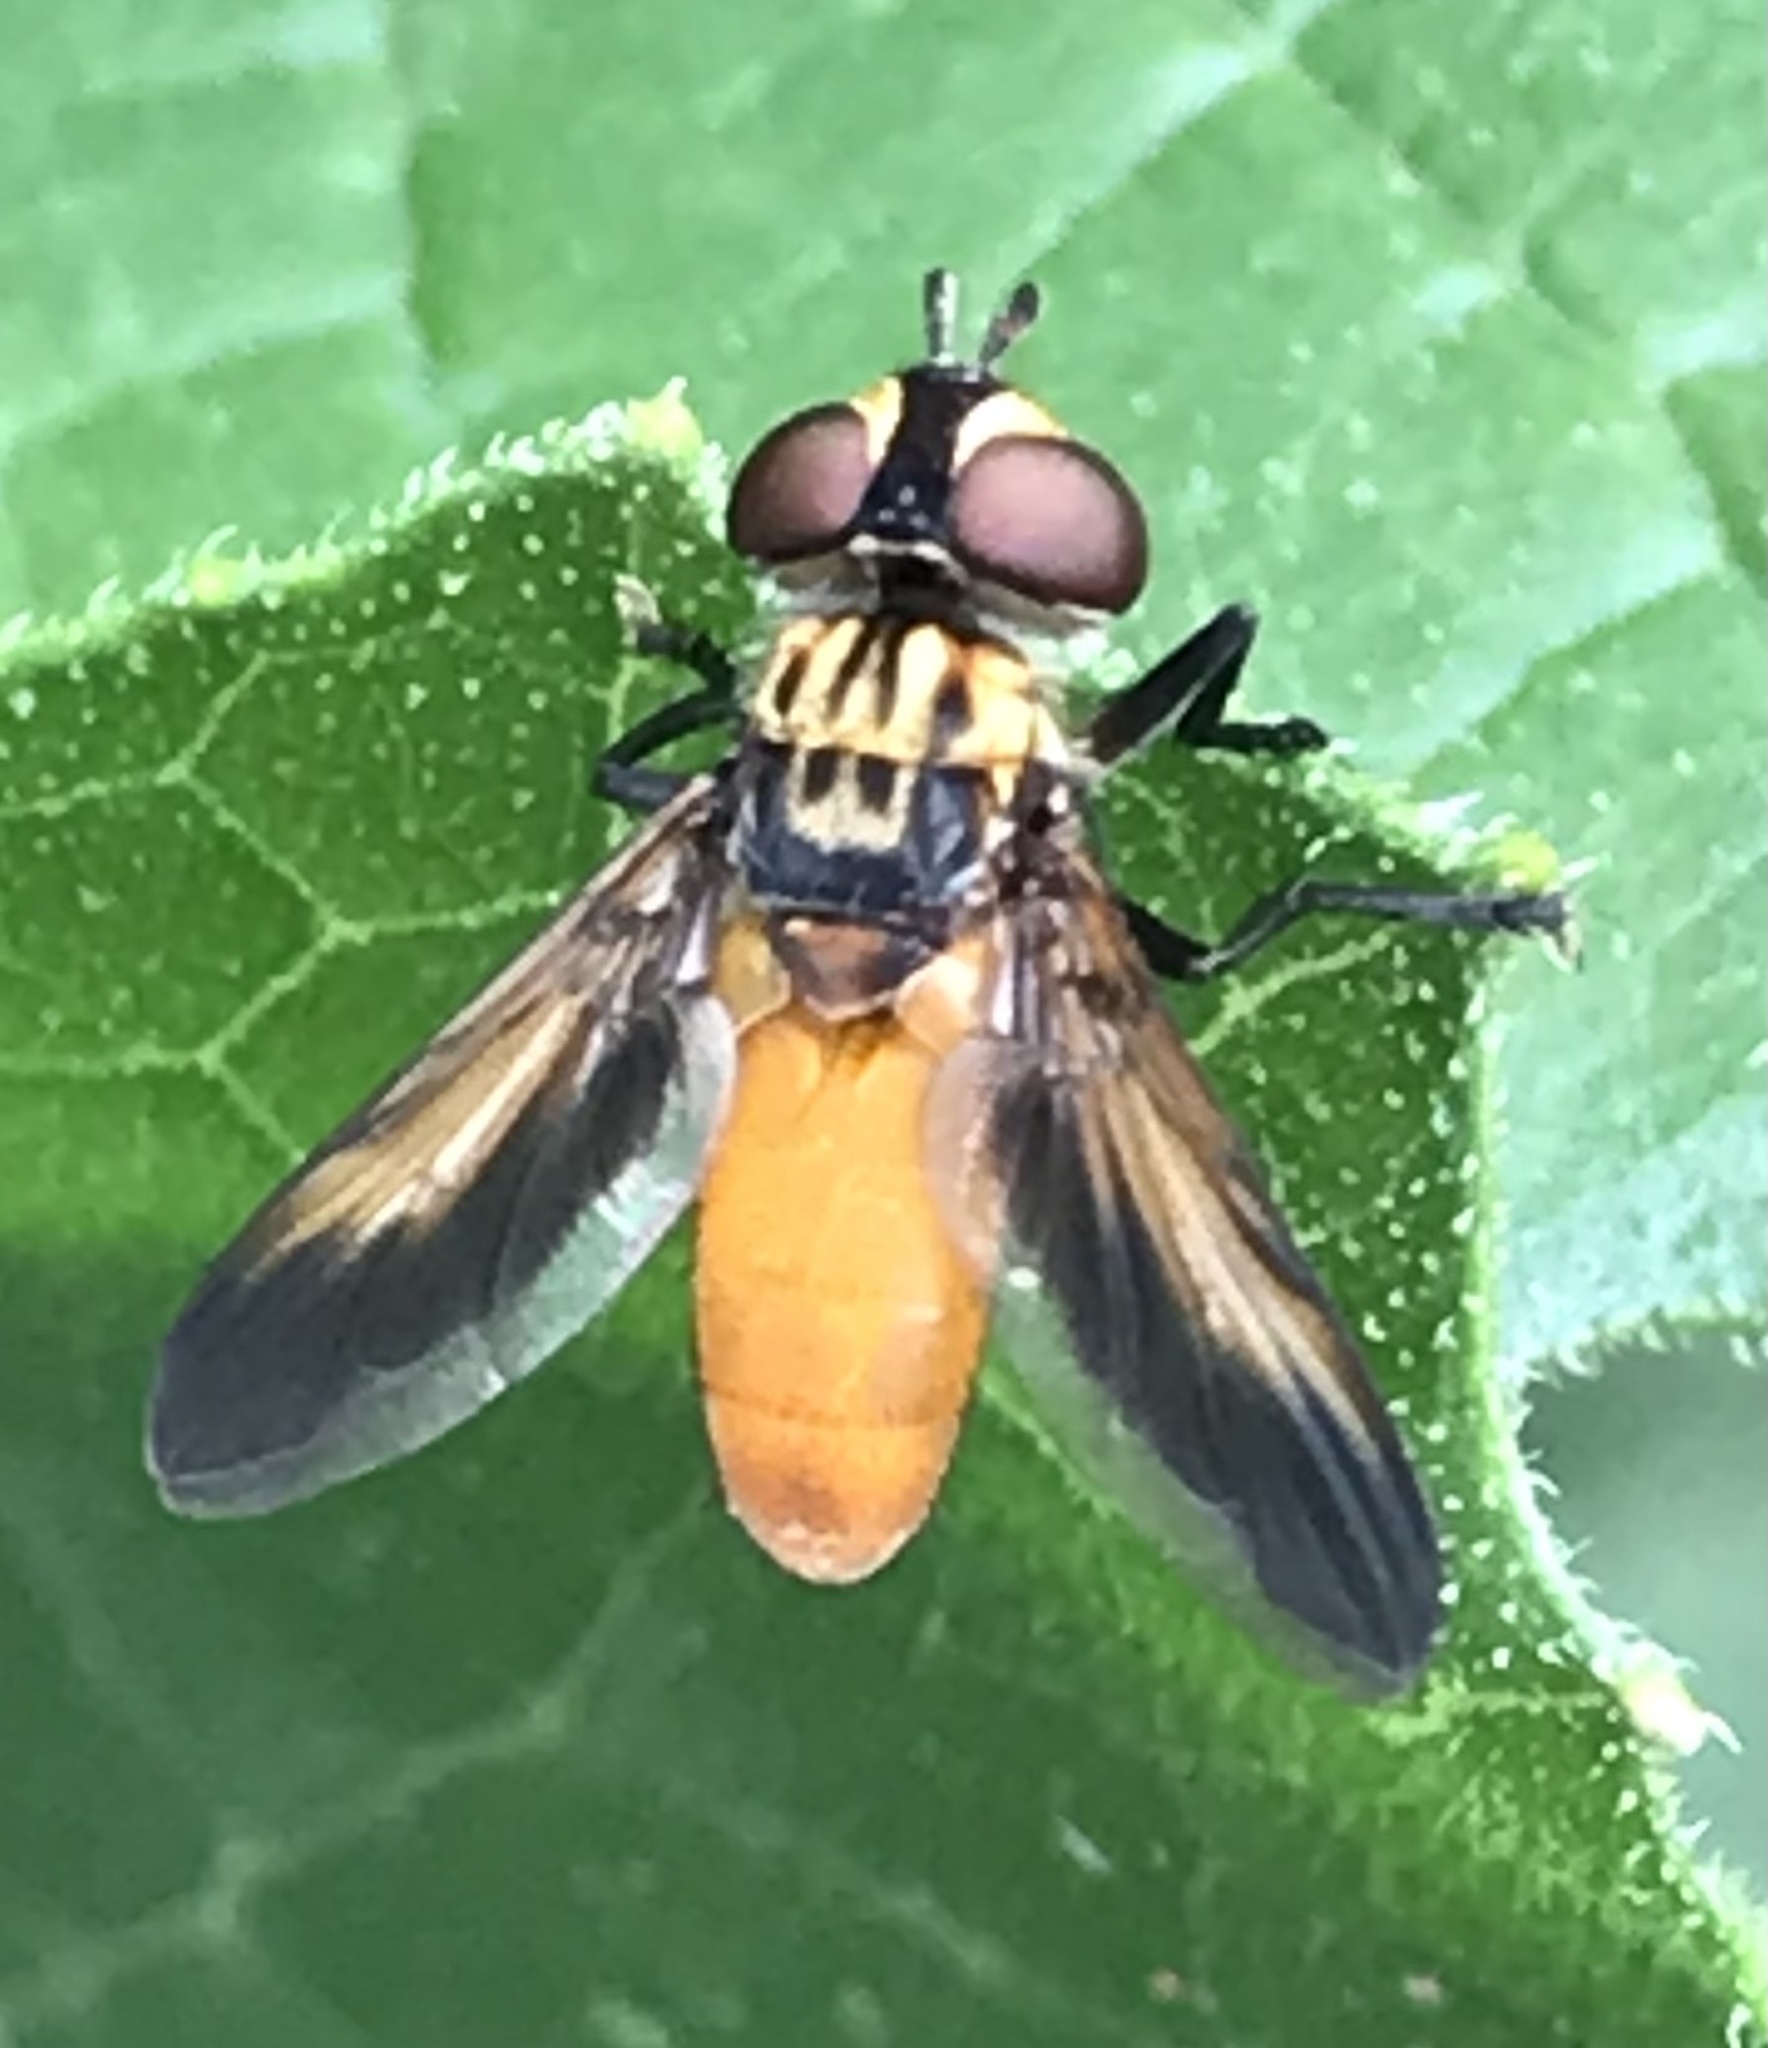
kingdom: Animalia
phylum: Arthropoda
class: Insecta
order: Diptera
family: Tachinidae
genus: Trichopoda
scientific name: Trichopoda pennipes
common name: Tachinid fly
